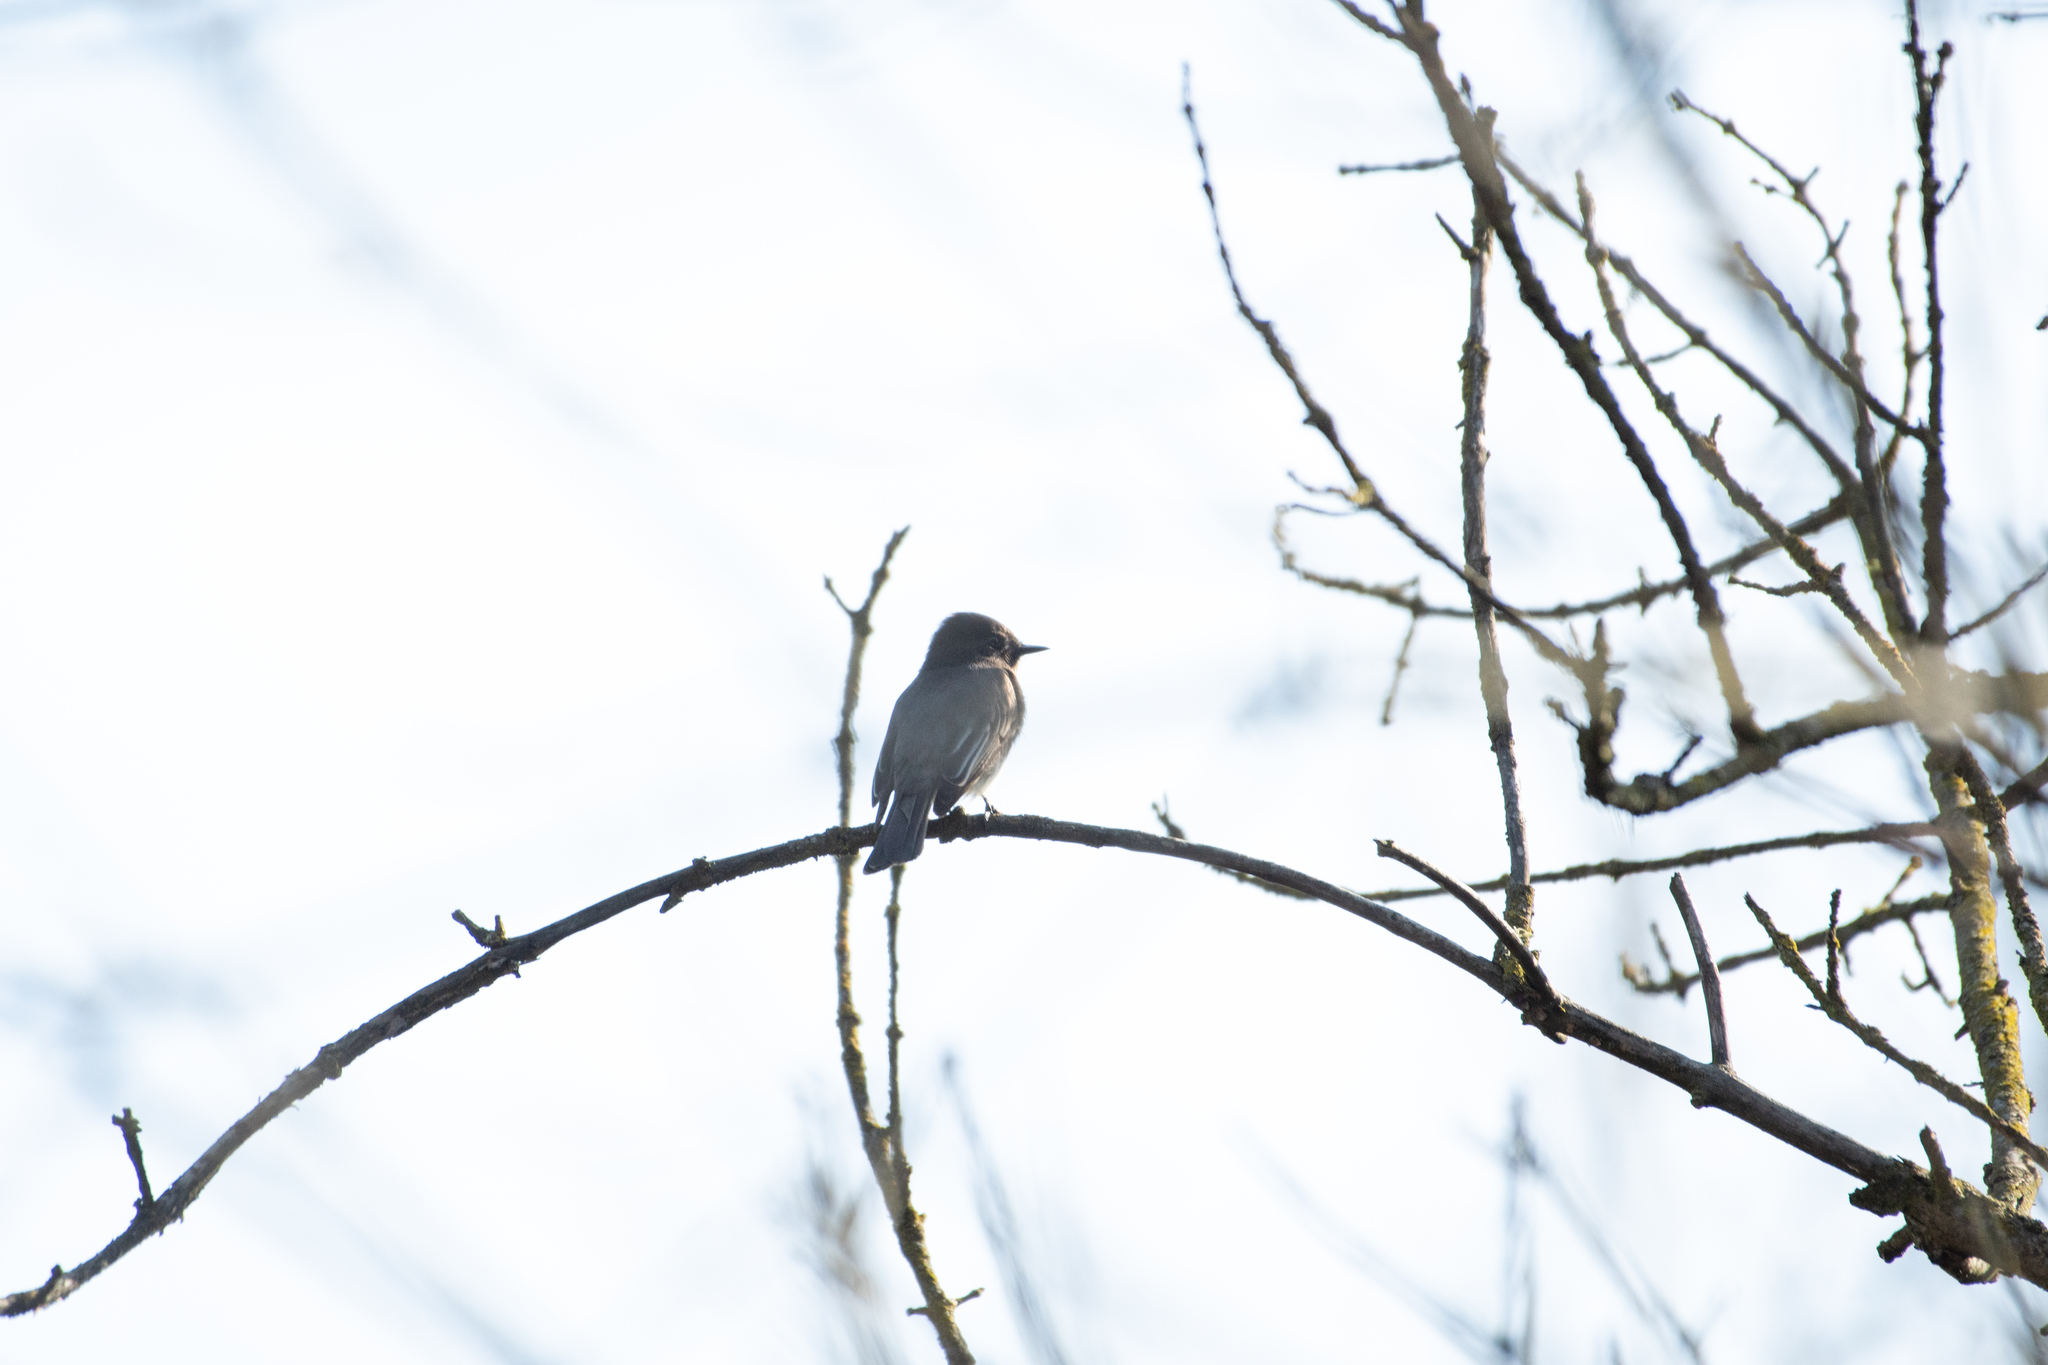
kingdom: Animalia
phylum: Chordata
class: Aves
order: Passeriformes
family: Tyrannidae
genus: Sayornis
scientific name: Sayornis nigricans
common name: Black phoebe
